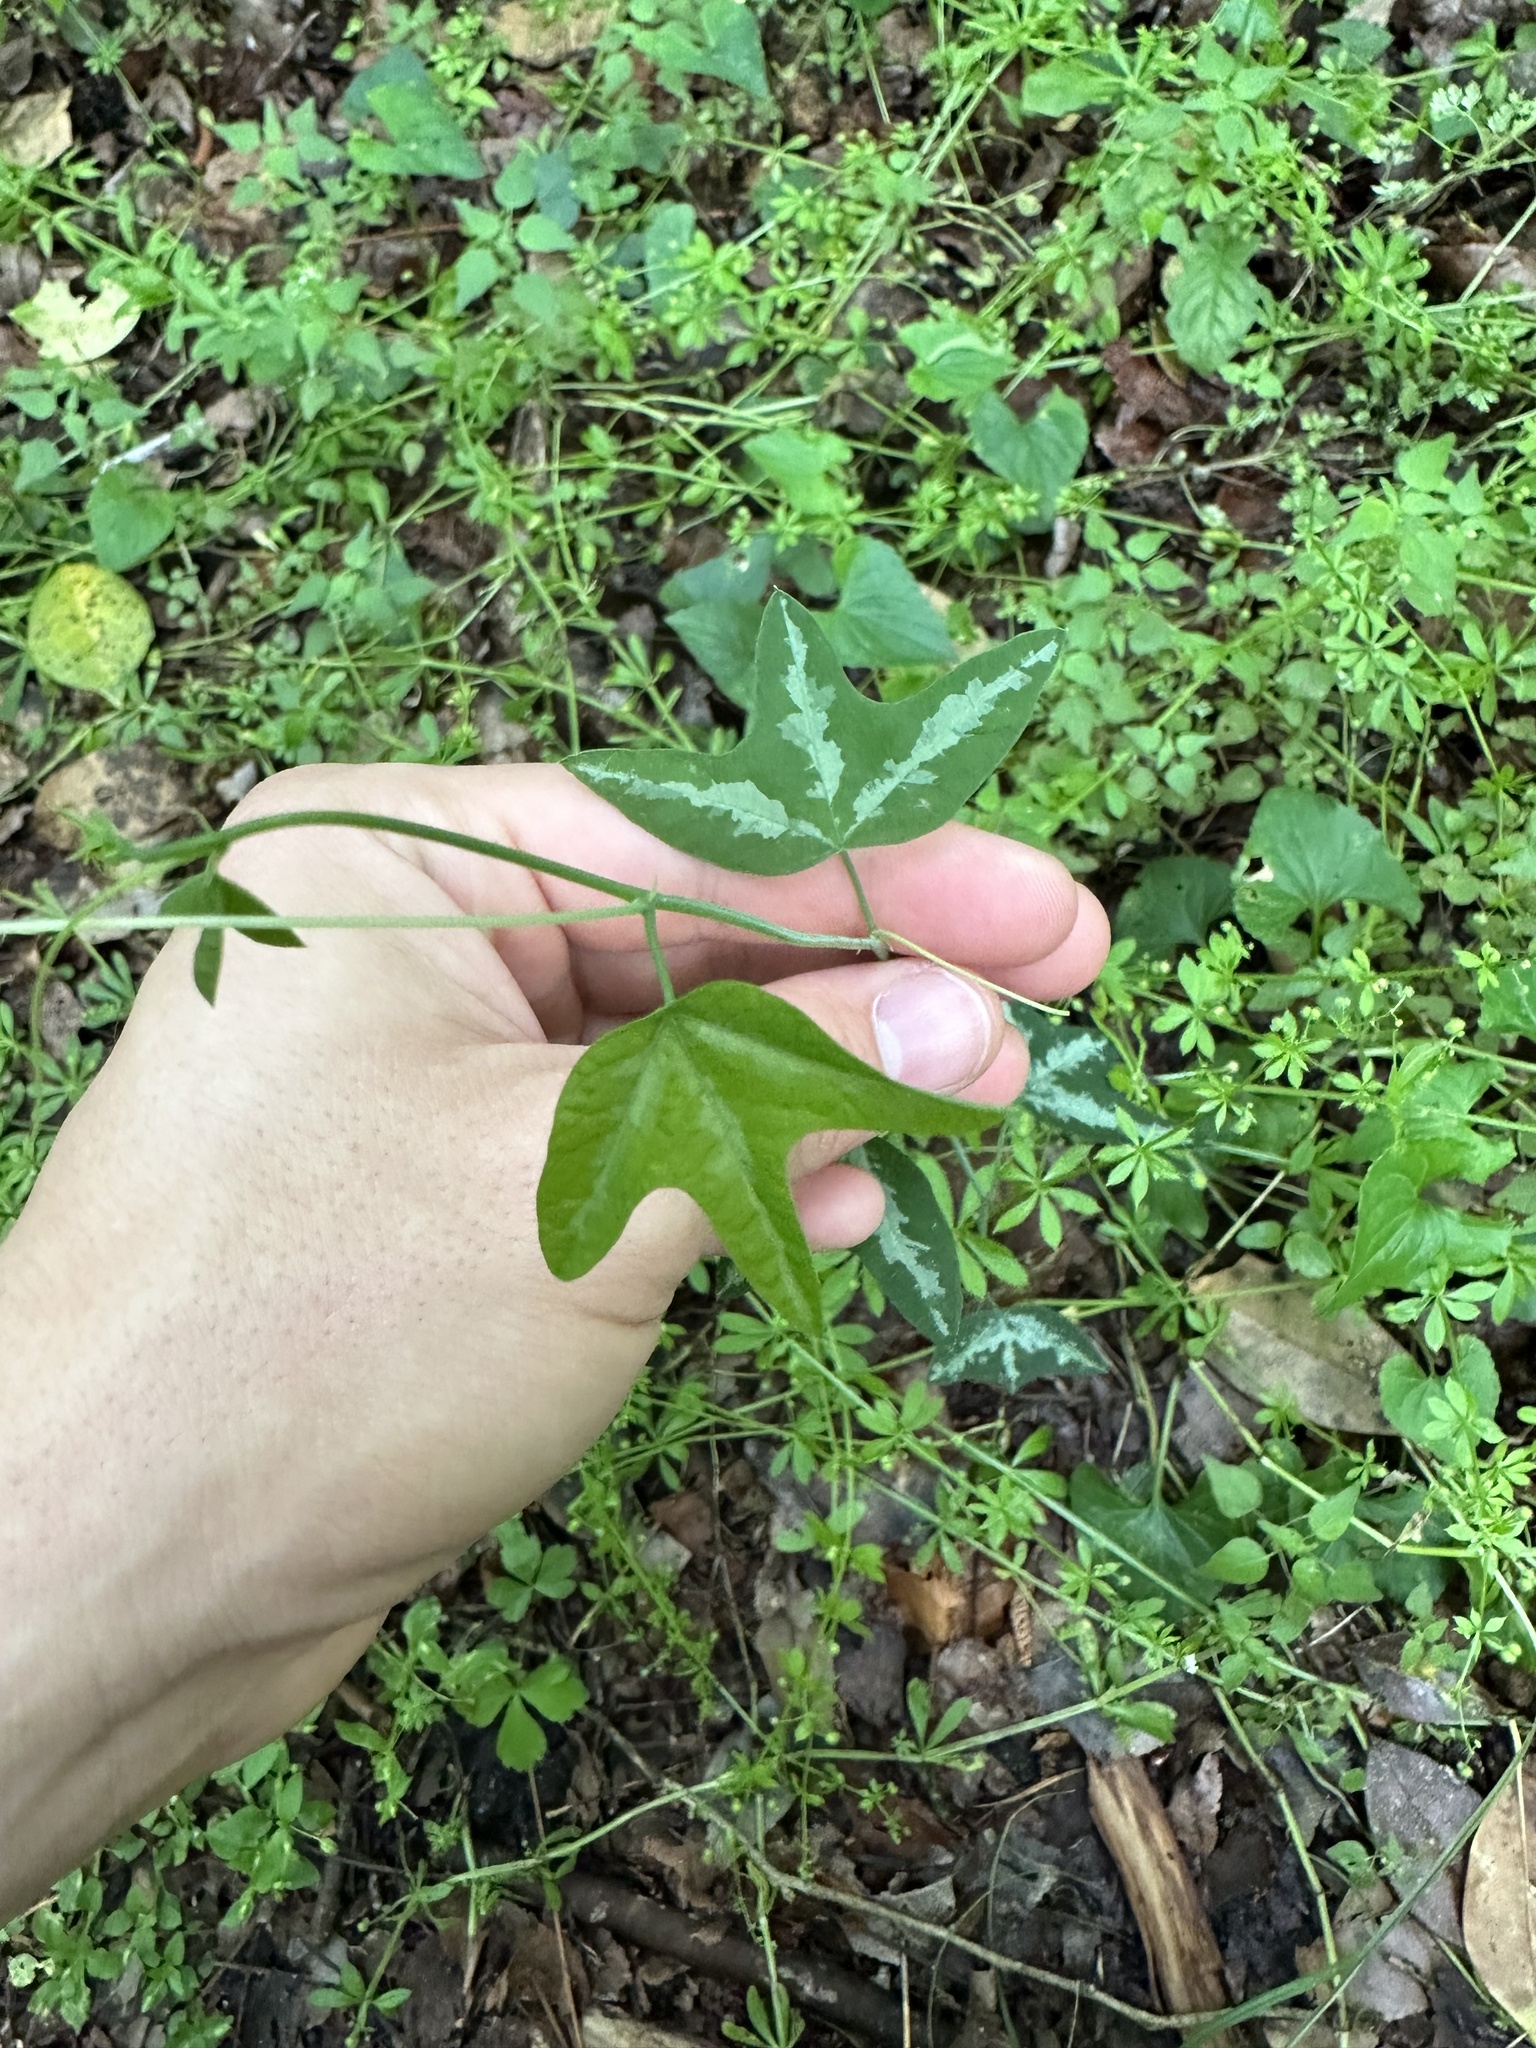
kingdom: Plantae
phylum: Tracheophyta
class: Magnoliopsida
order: Malpighiales
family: Passifloraceae
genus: Passiflora
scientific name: Passiflora lutea
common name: Yellow passionflower
